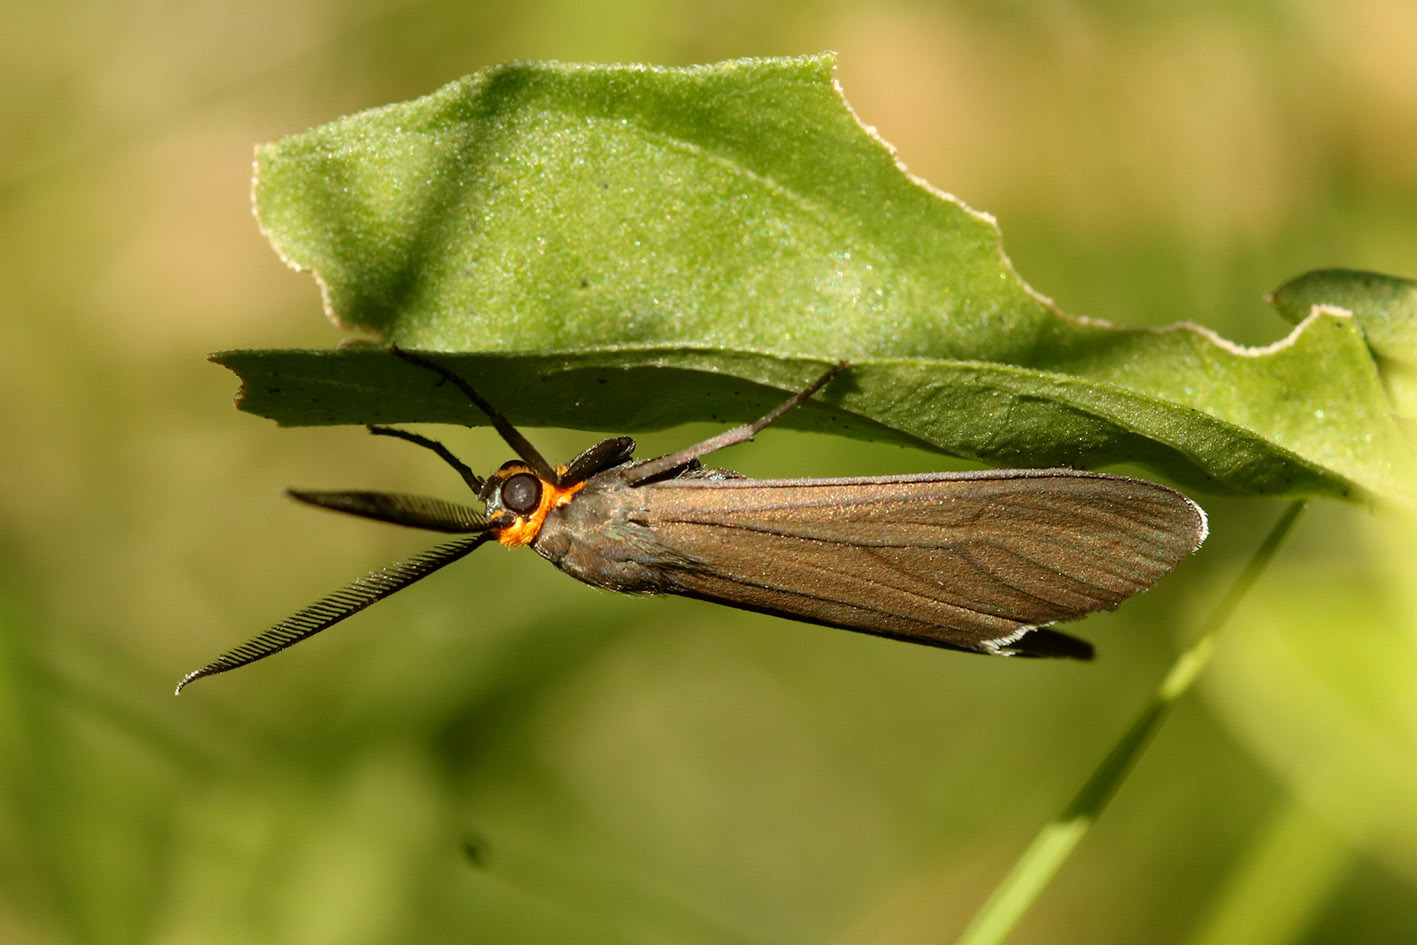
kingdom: Animalia
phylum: Arthropoda
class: Insecta
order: Lepidoptera
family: Erebidae
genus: Ctenucha
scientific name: Ctenucha rubriceps
